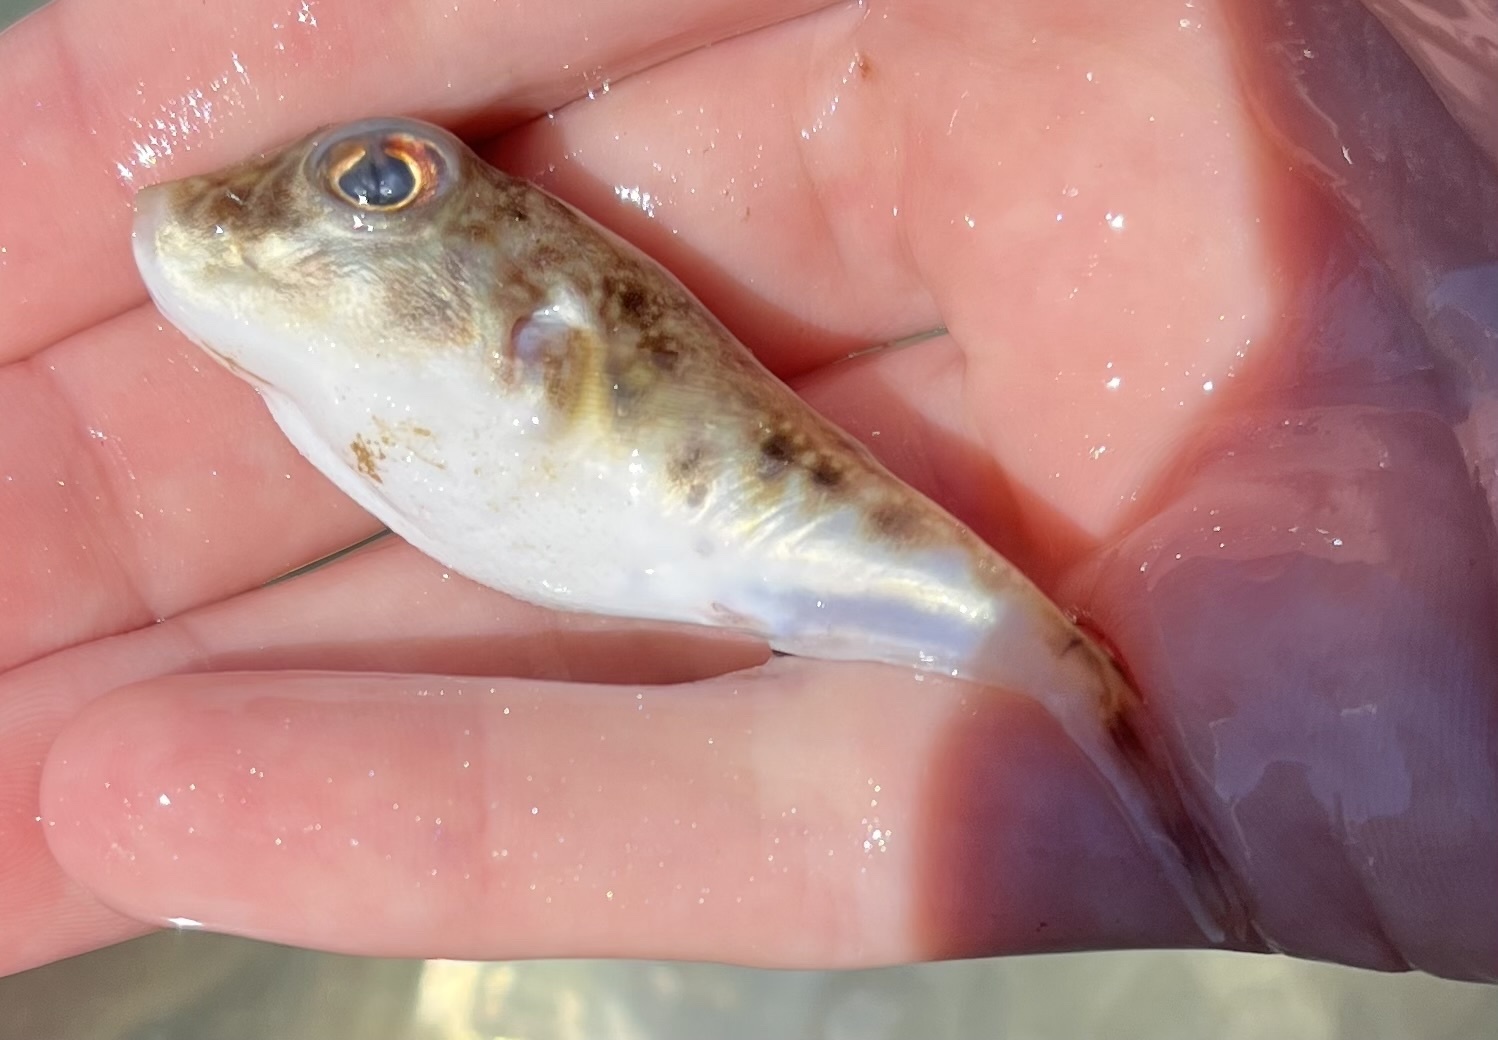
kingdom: Animalia
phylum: Chordata
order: Tetraodontiformes
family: Tetraodontidae
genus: Sphoeroides
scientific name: Sphoeroides parvus
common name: Least puffer
